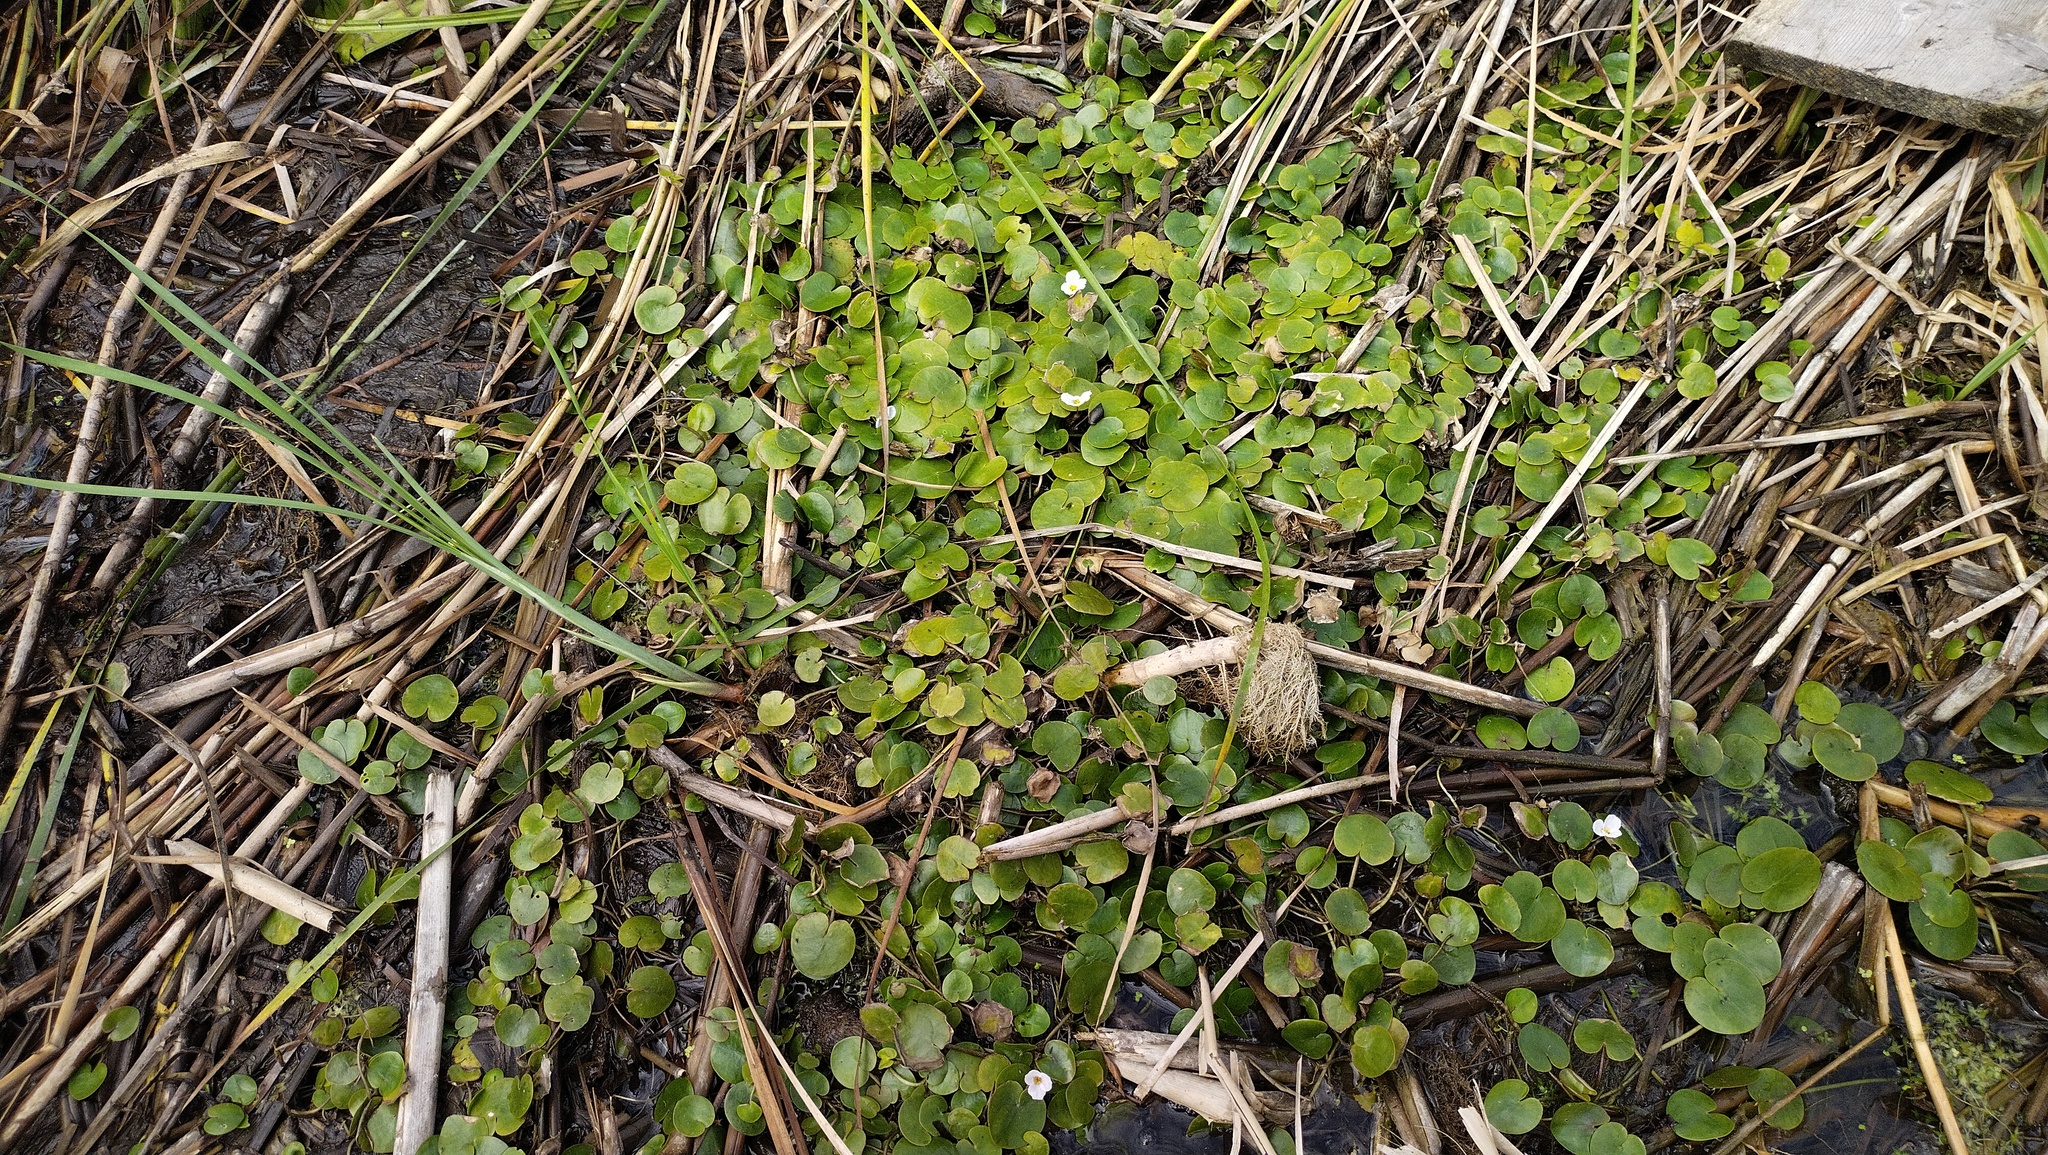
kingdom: Plantae
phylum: Tracheophyta
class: Liliopsida
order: Alismatales
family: Hydrocharitaceae
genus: Hydrocharis
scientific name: Hydrocharis morsus-ranae
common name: Frogbit
